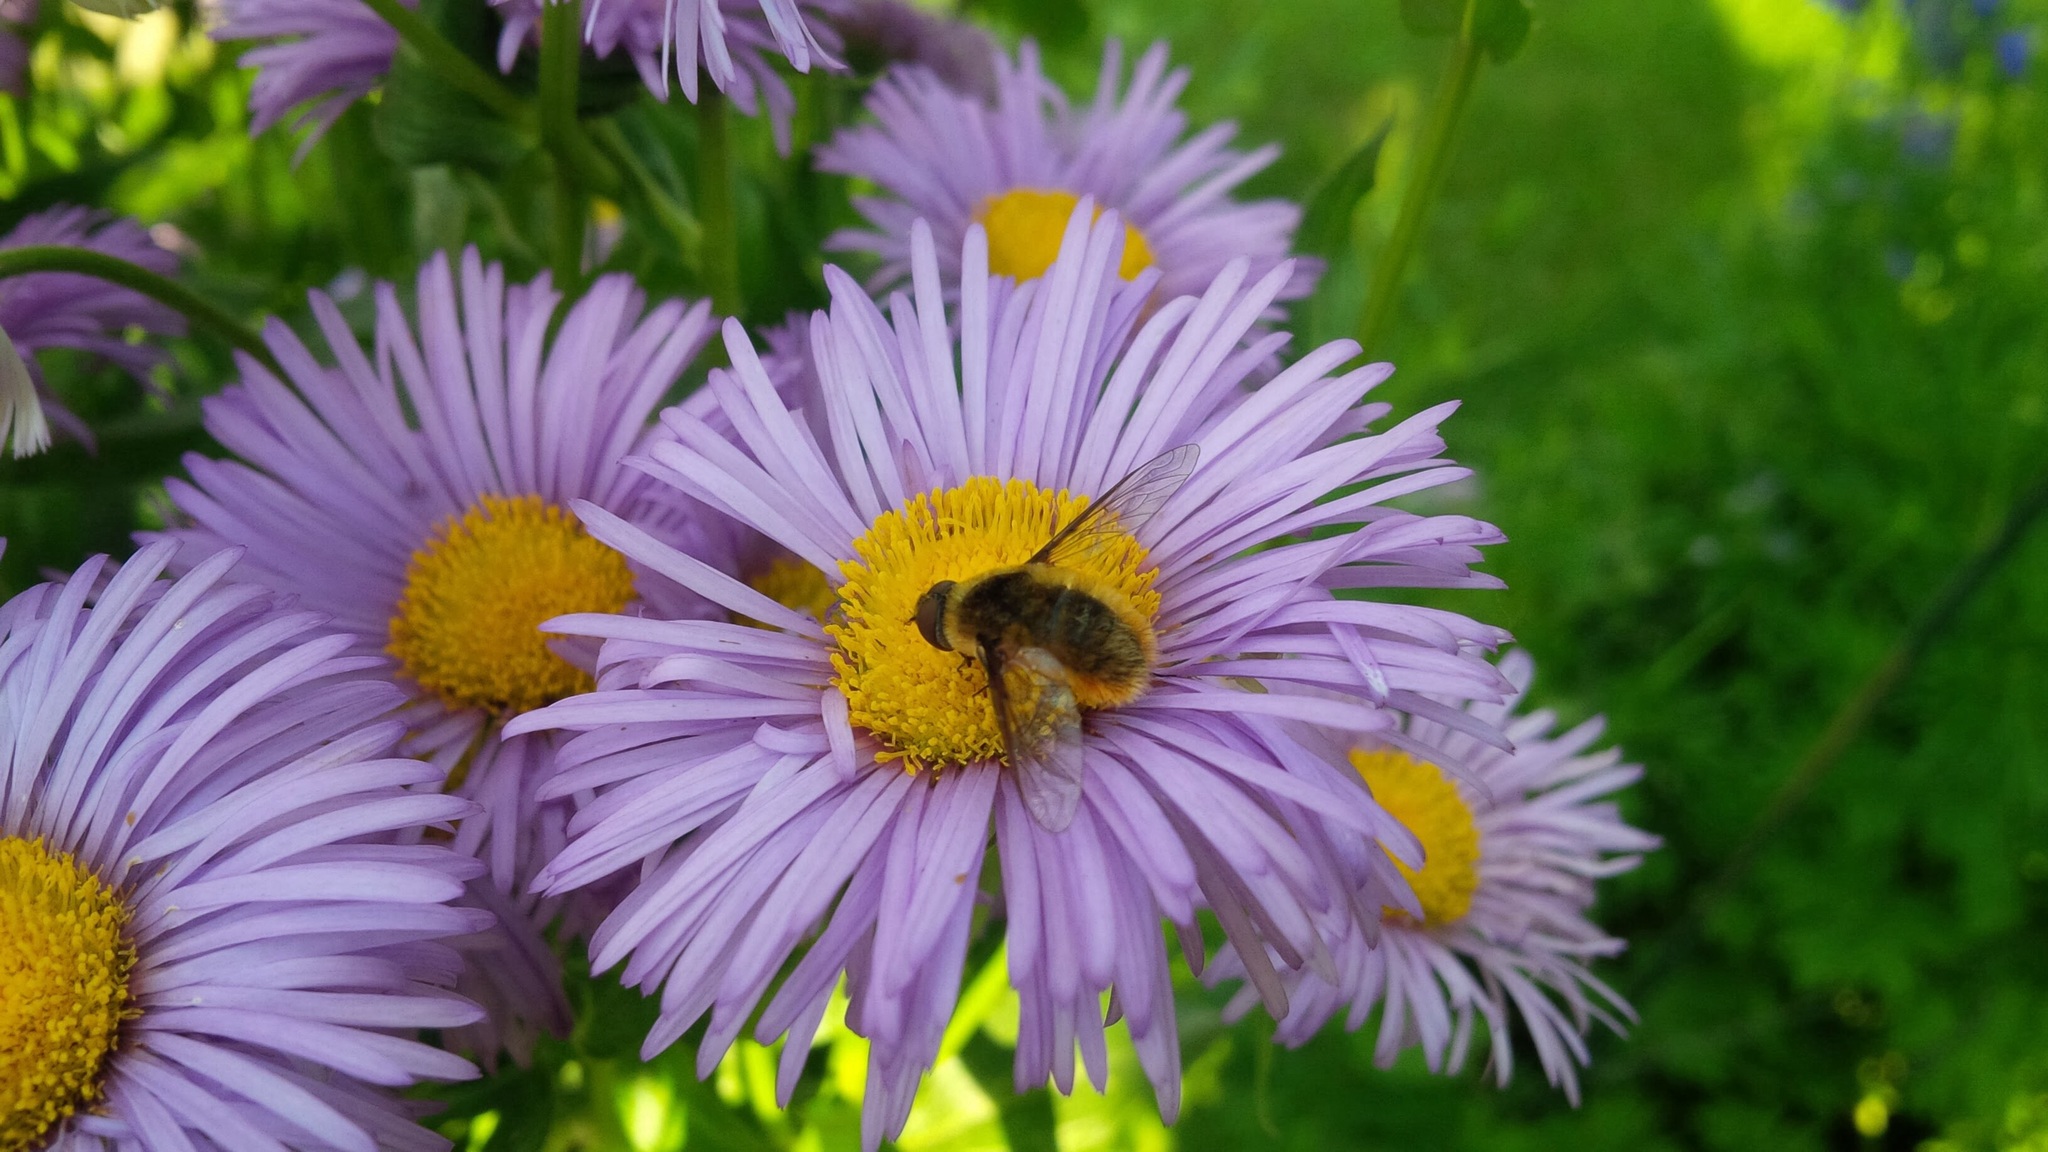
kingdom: Animalia
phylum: Arthropoda
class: Insecta
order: Diptera
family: Bombyliidae
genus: Villa
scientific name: Villa fulviana
